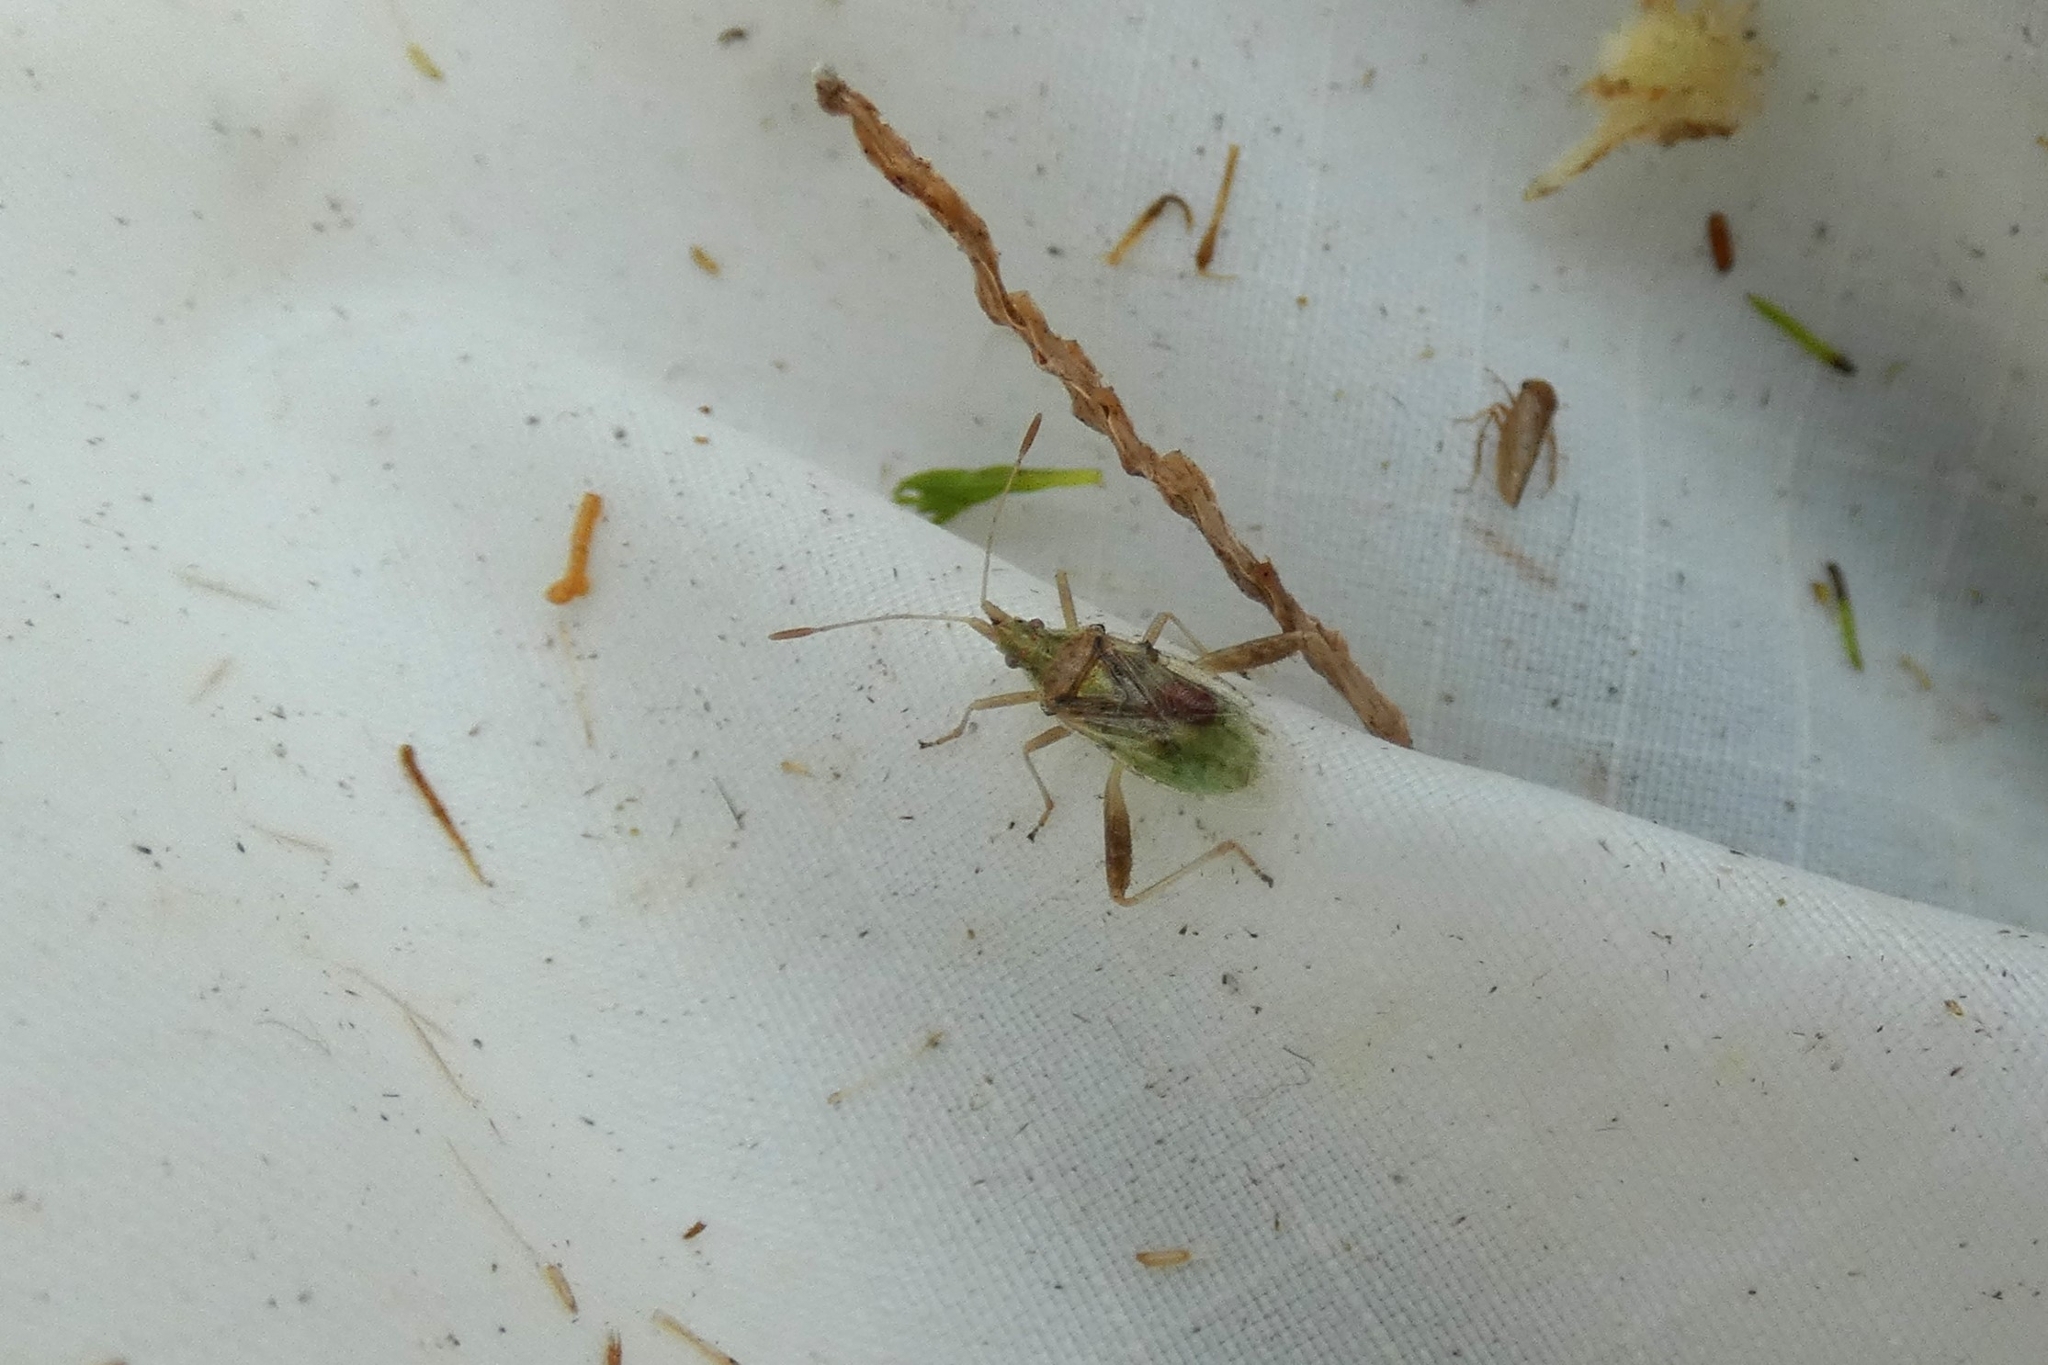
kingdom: Animalia
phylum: Arthropoda
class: Insecta
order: Hemiptera
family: Rhopalidae
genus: Harmostes
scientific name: Harmostes reflexulus
